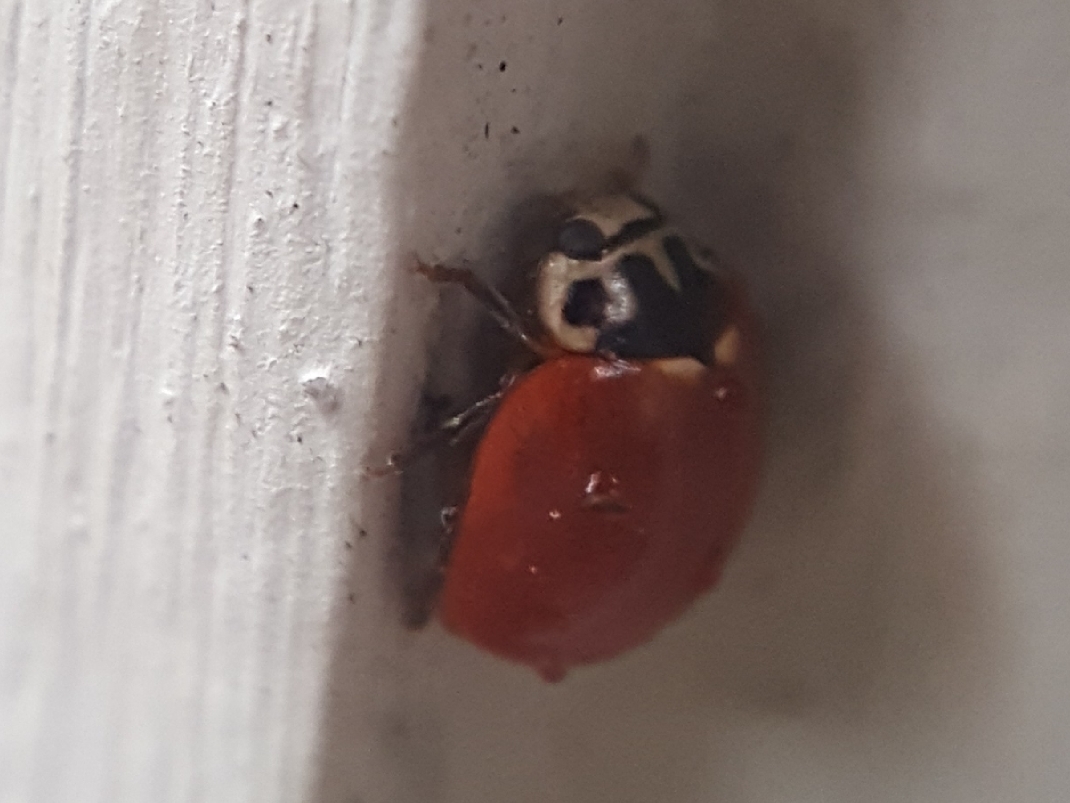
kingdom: Animalia
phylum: Arthropoda
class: Insecta
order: Coleoptera
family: Coccinellidae
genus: Cycloneda
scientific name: Cycloneda polita
